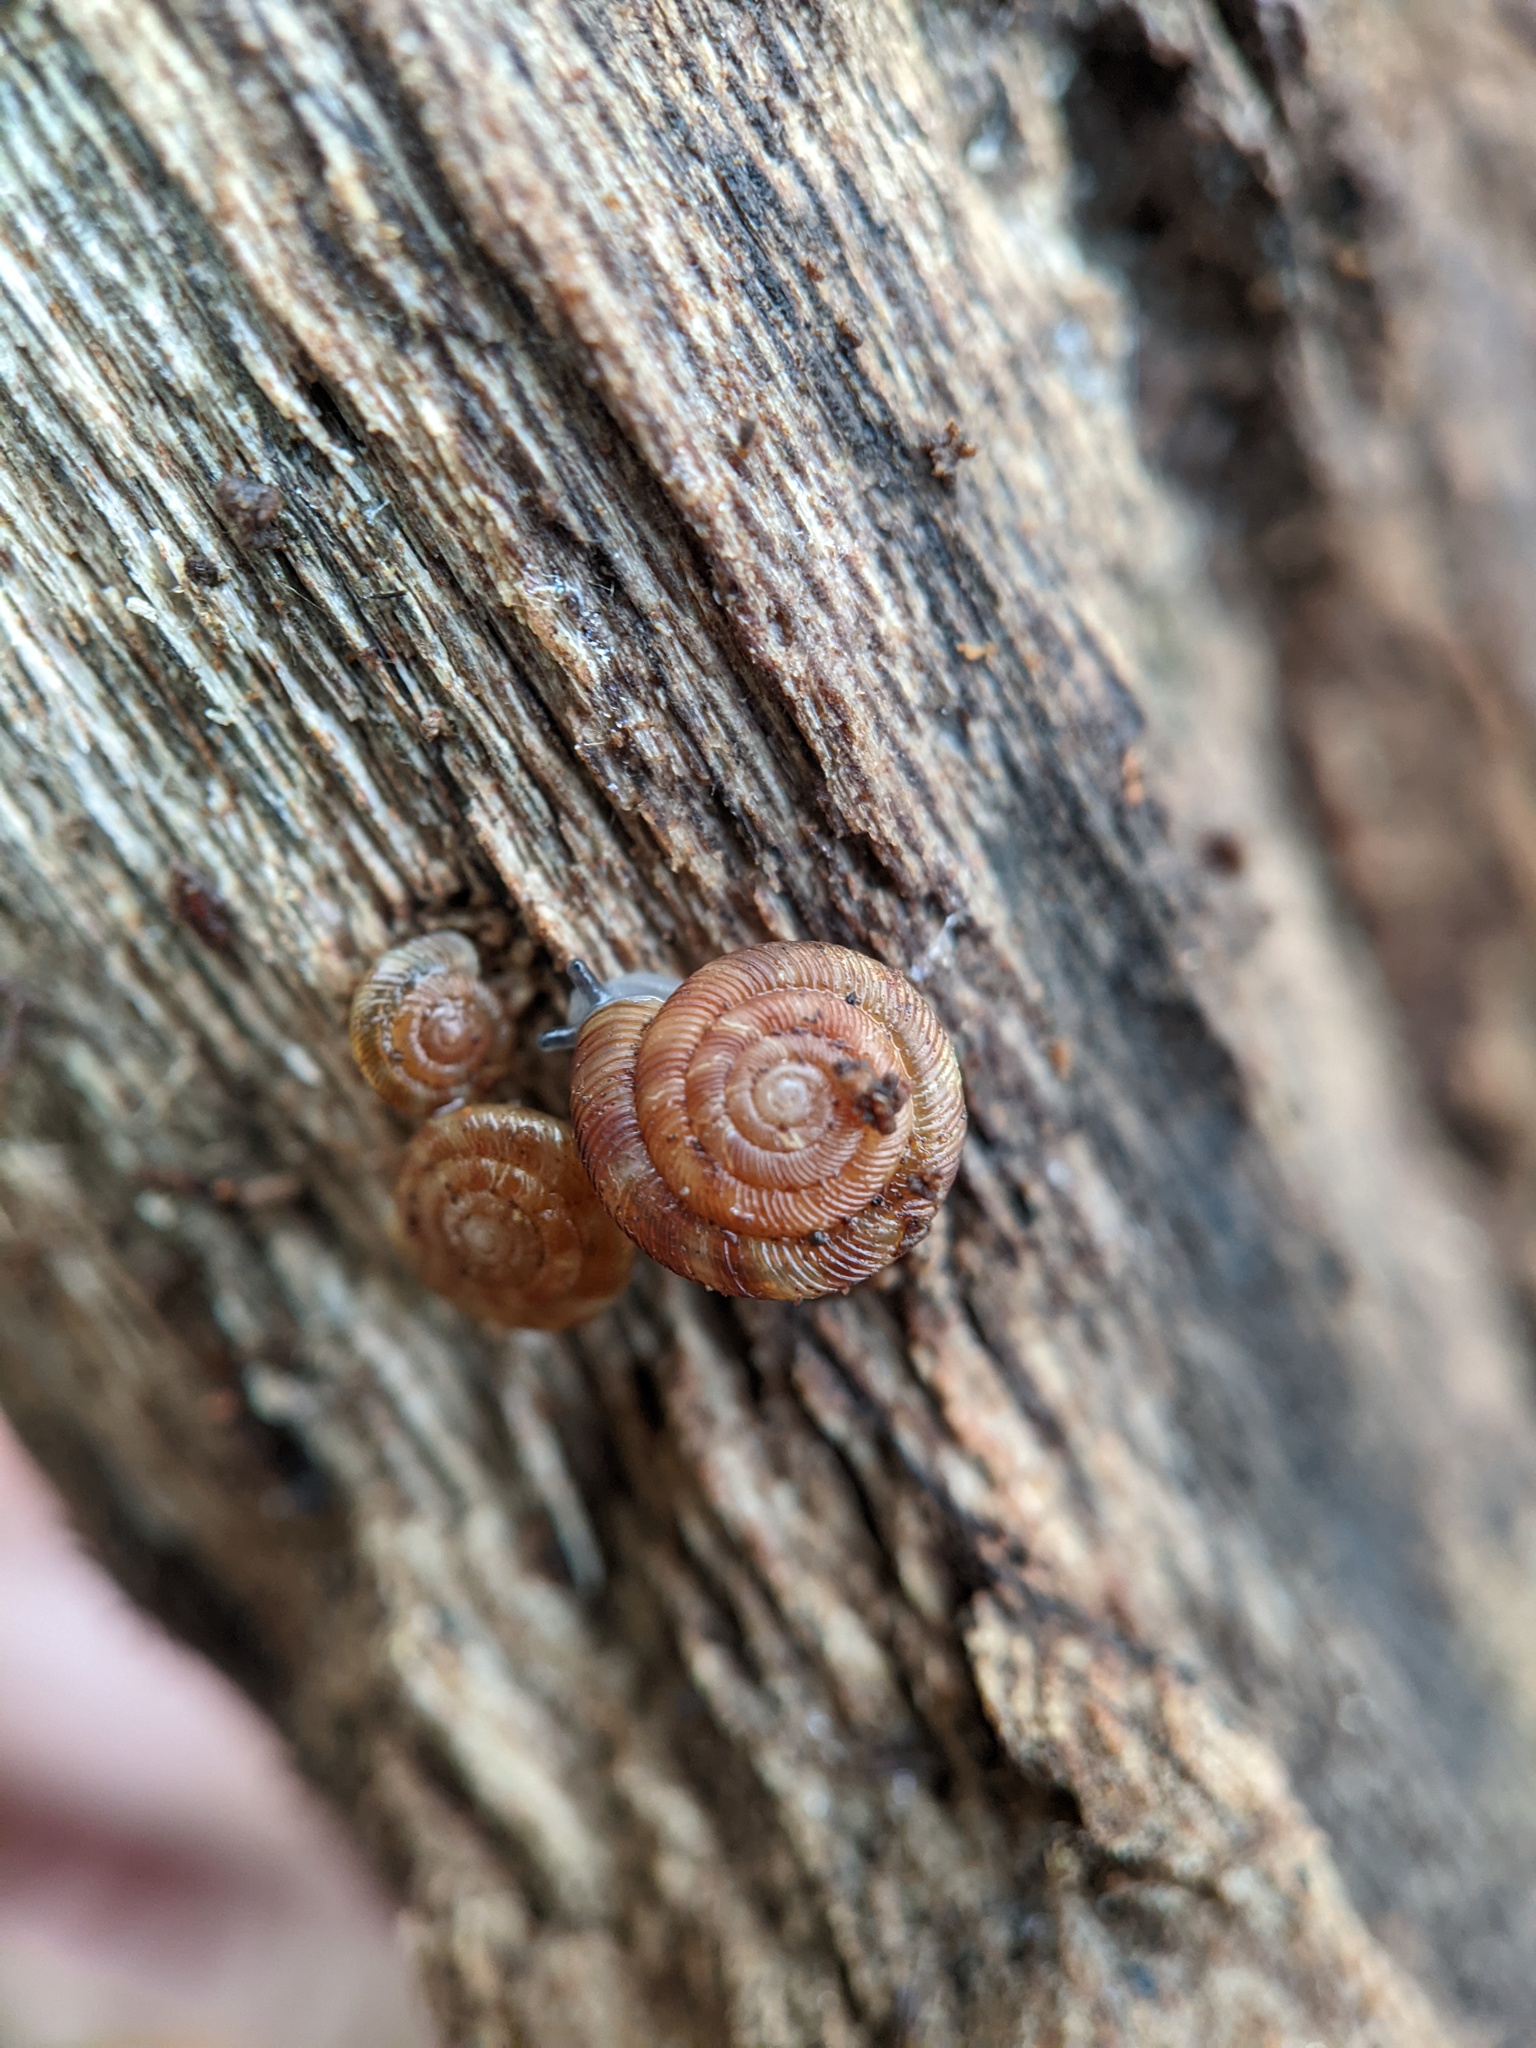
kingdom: Animalia
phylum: Mollusca
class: Gastropoda
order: Stylommatophora
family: Discidae
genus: Discus
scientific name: Discus rotundatus
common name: Rounded snail
